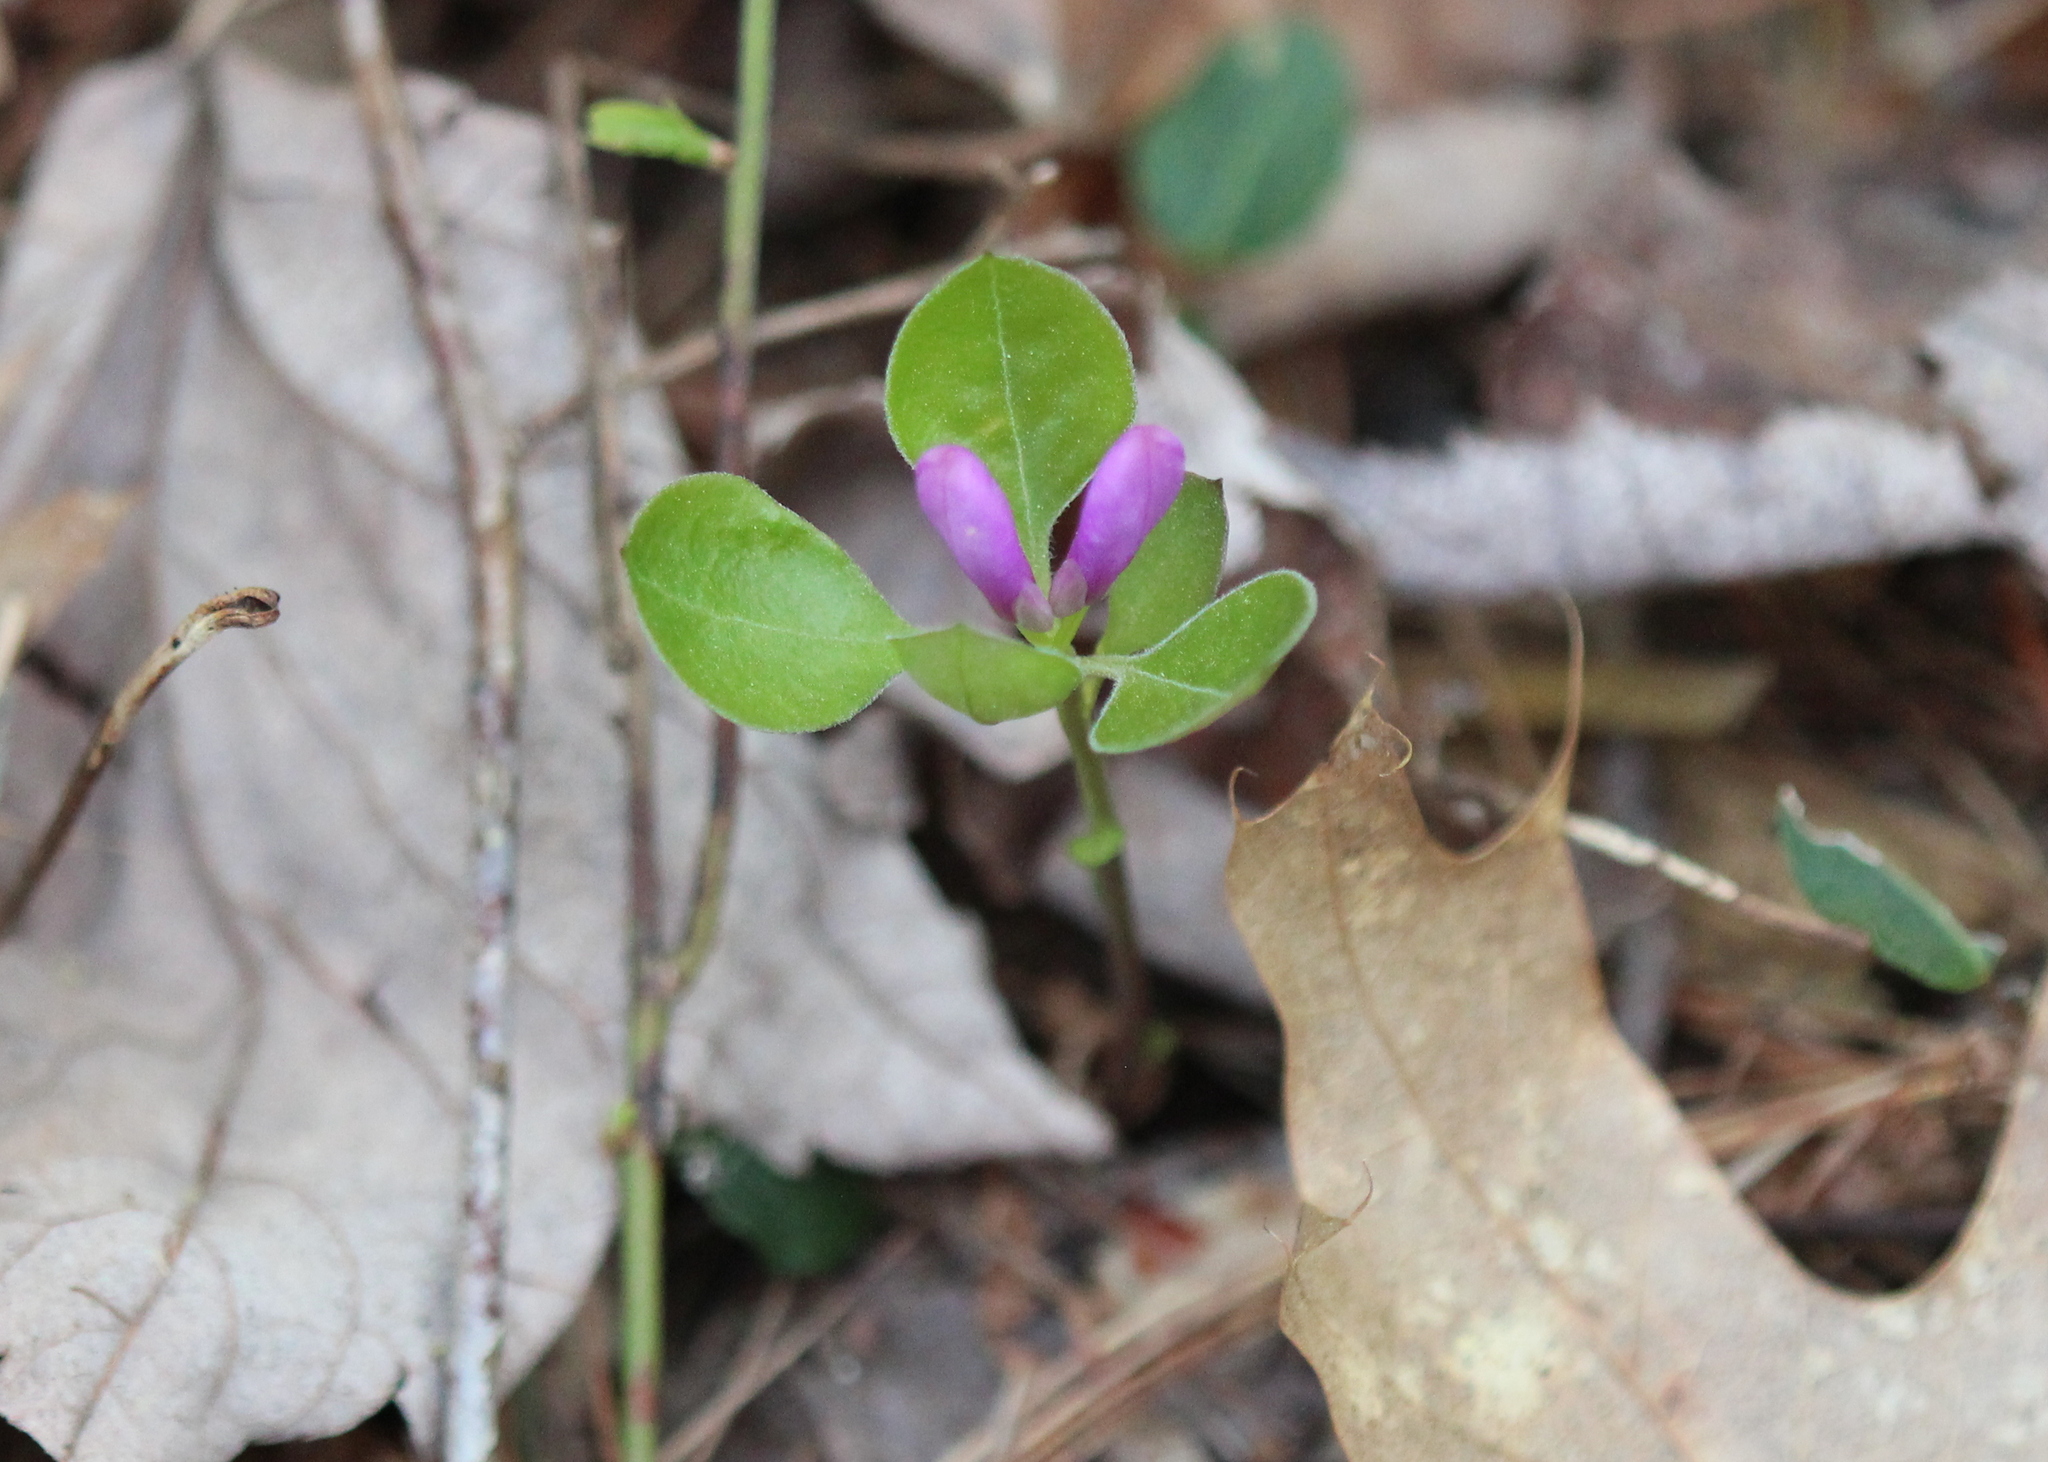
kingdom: Plantae
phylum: Tracheophyta
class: Magnoliopsida
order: Fabales
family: Polygalaceae
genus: Polygaloides
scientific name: Polygaloides paucifolia
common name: Bird-on-the-wing
